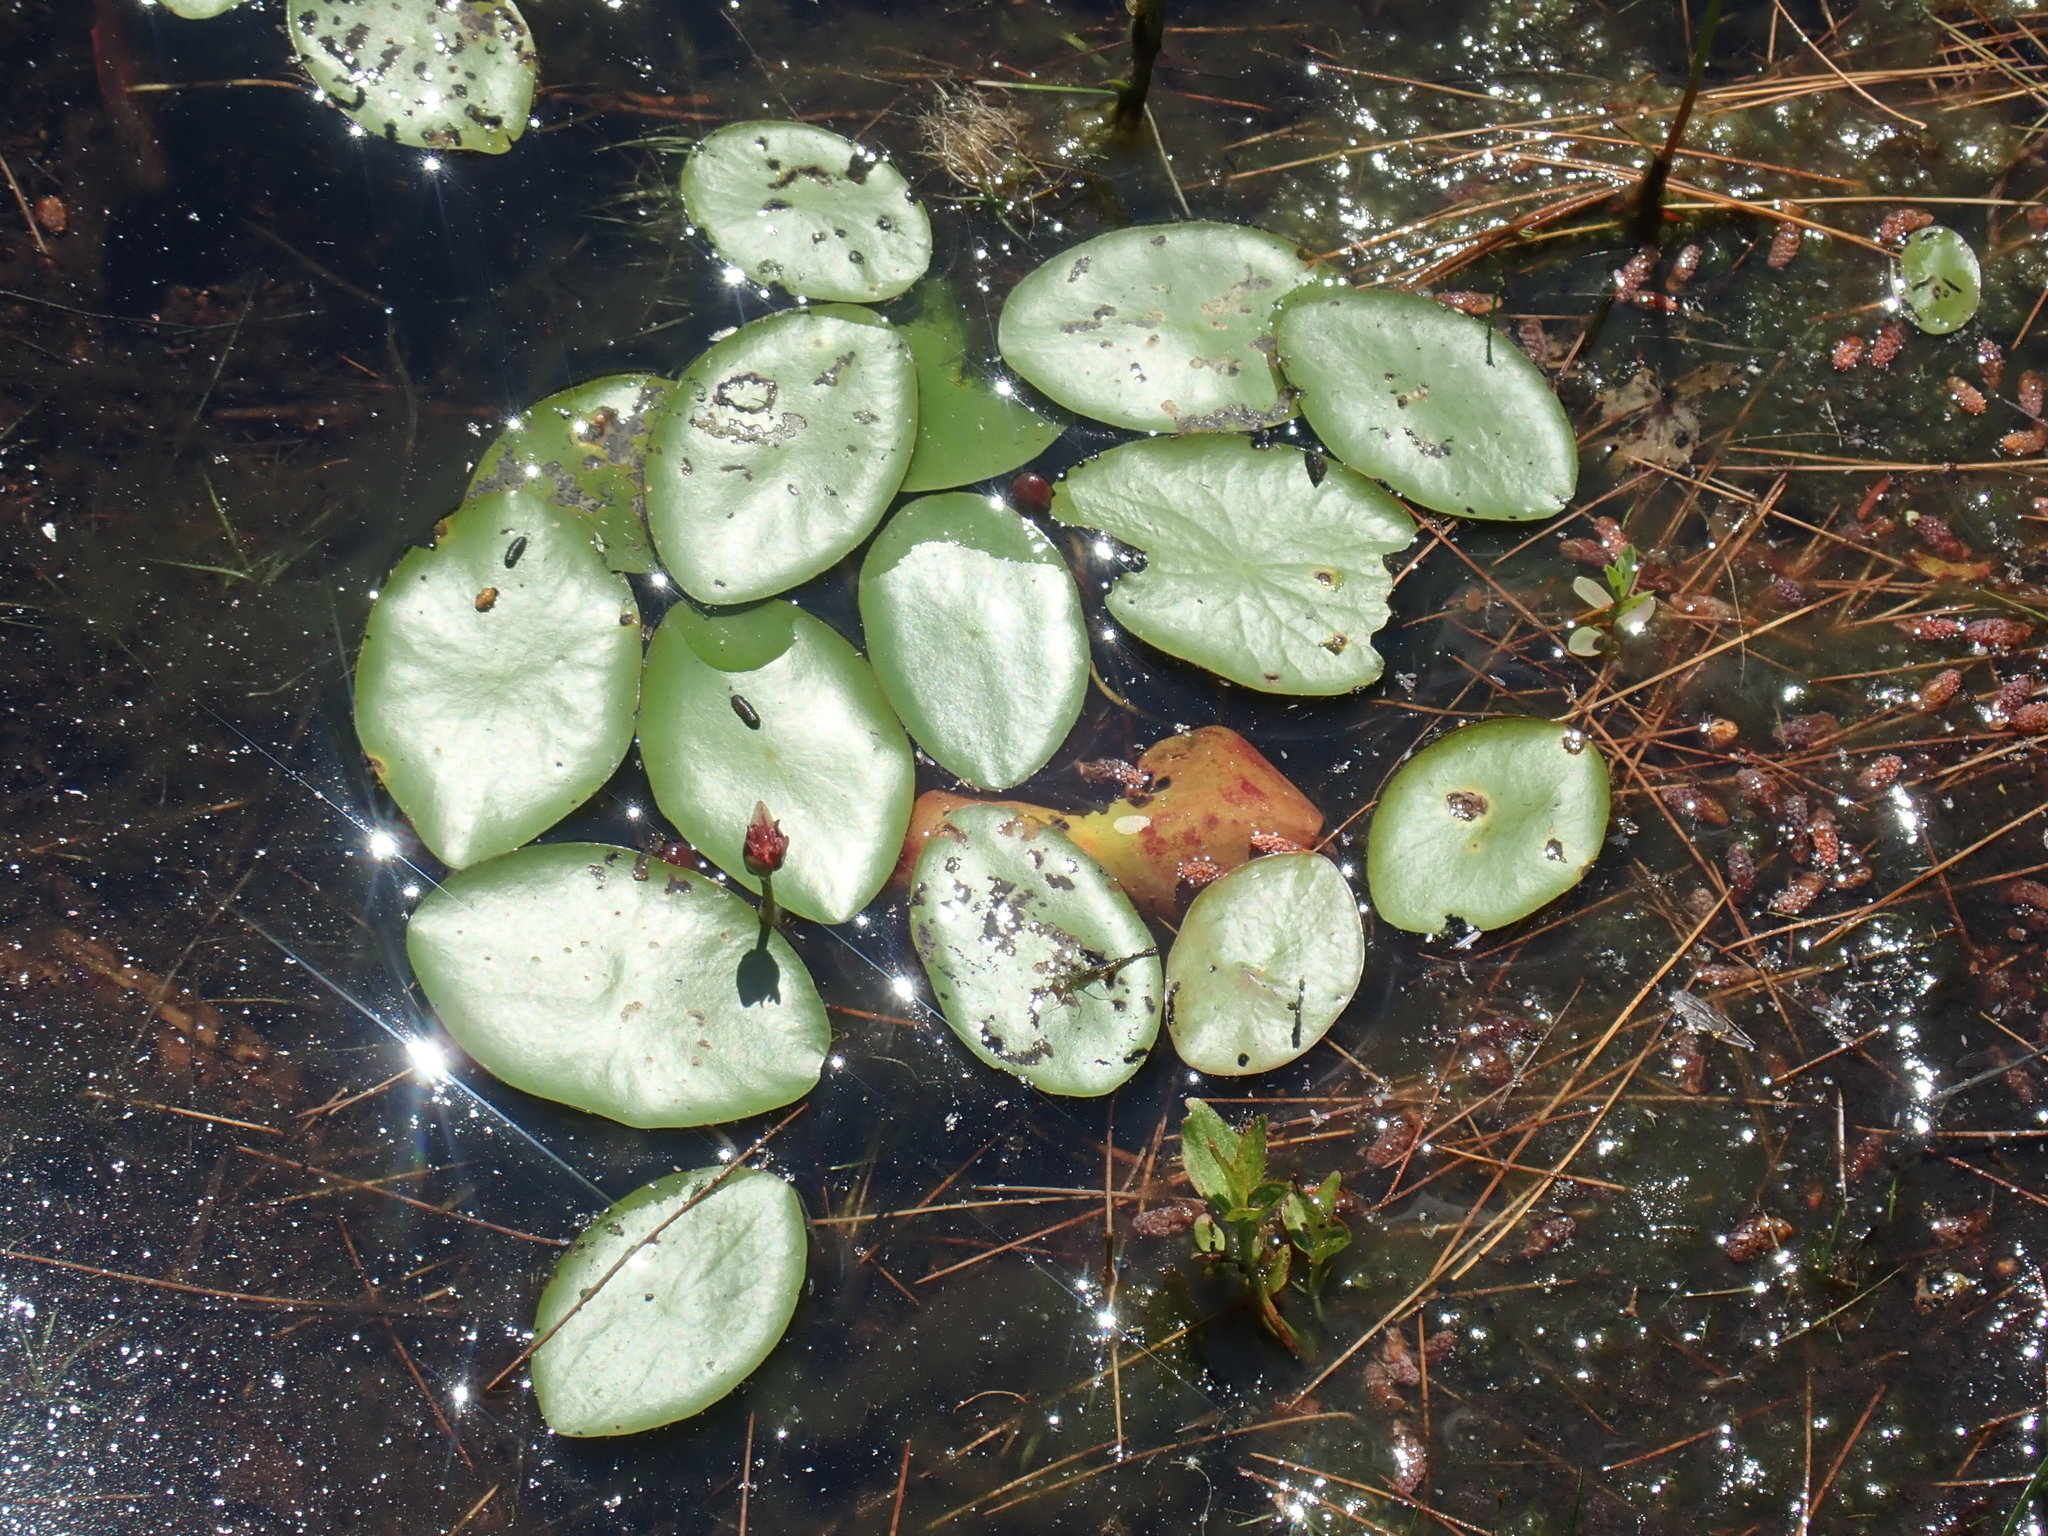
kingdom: Plantae
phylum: Tracheophyta
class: Magnoliopsida
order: Nymphaeales
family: Cabombaceae
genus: Brasenia
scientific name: Brasenia schreberi
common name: Water-shield
